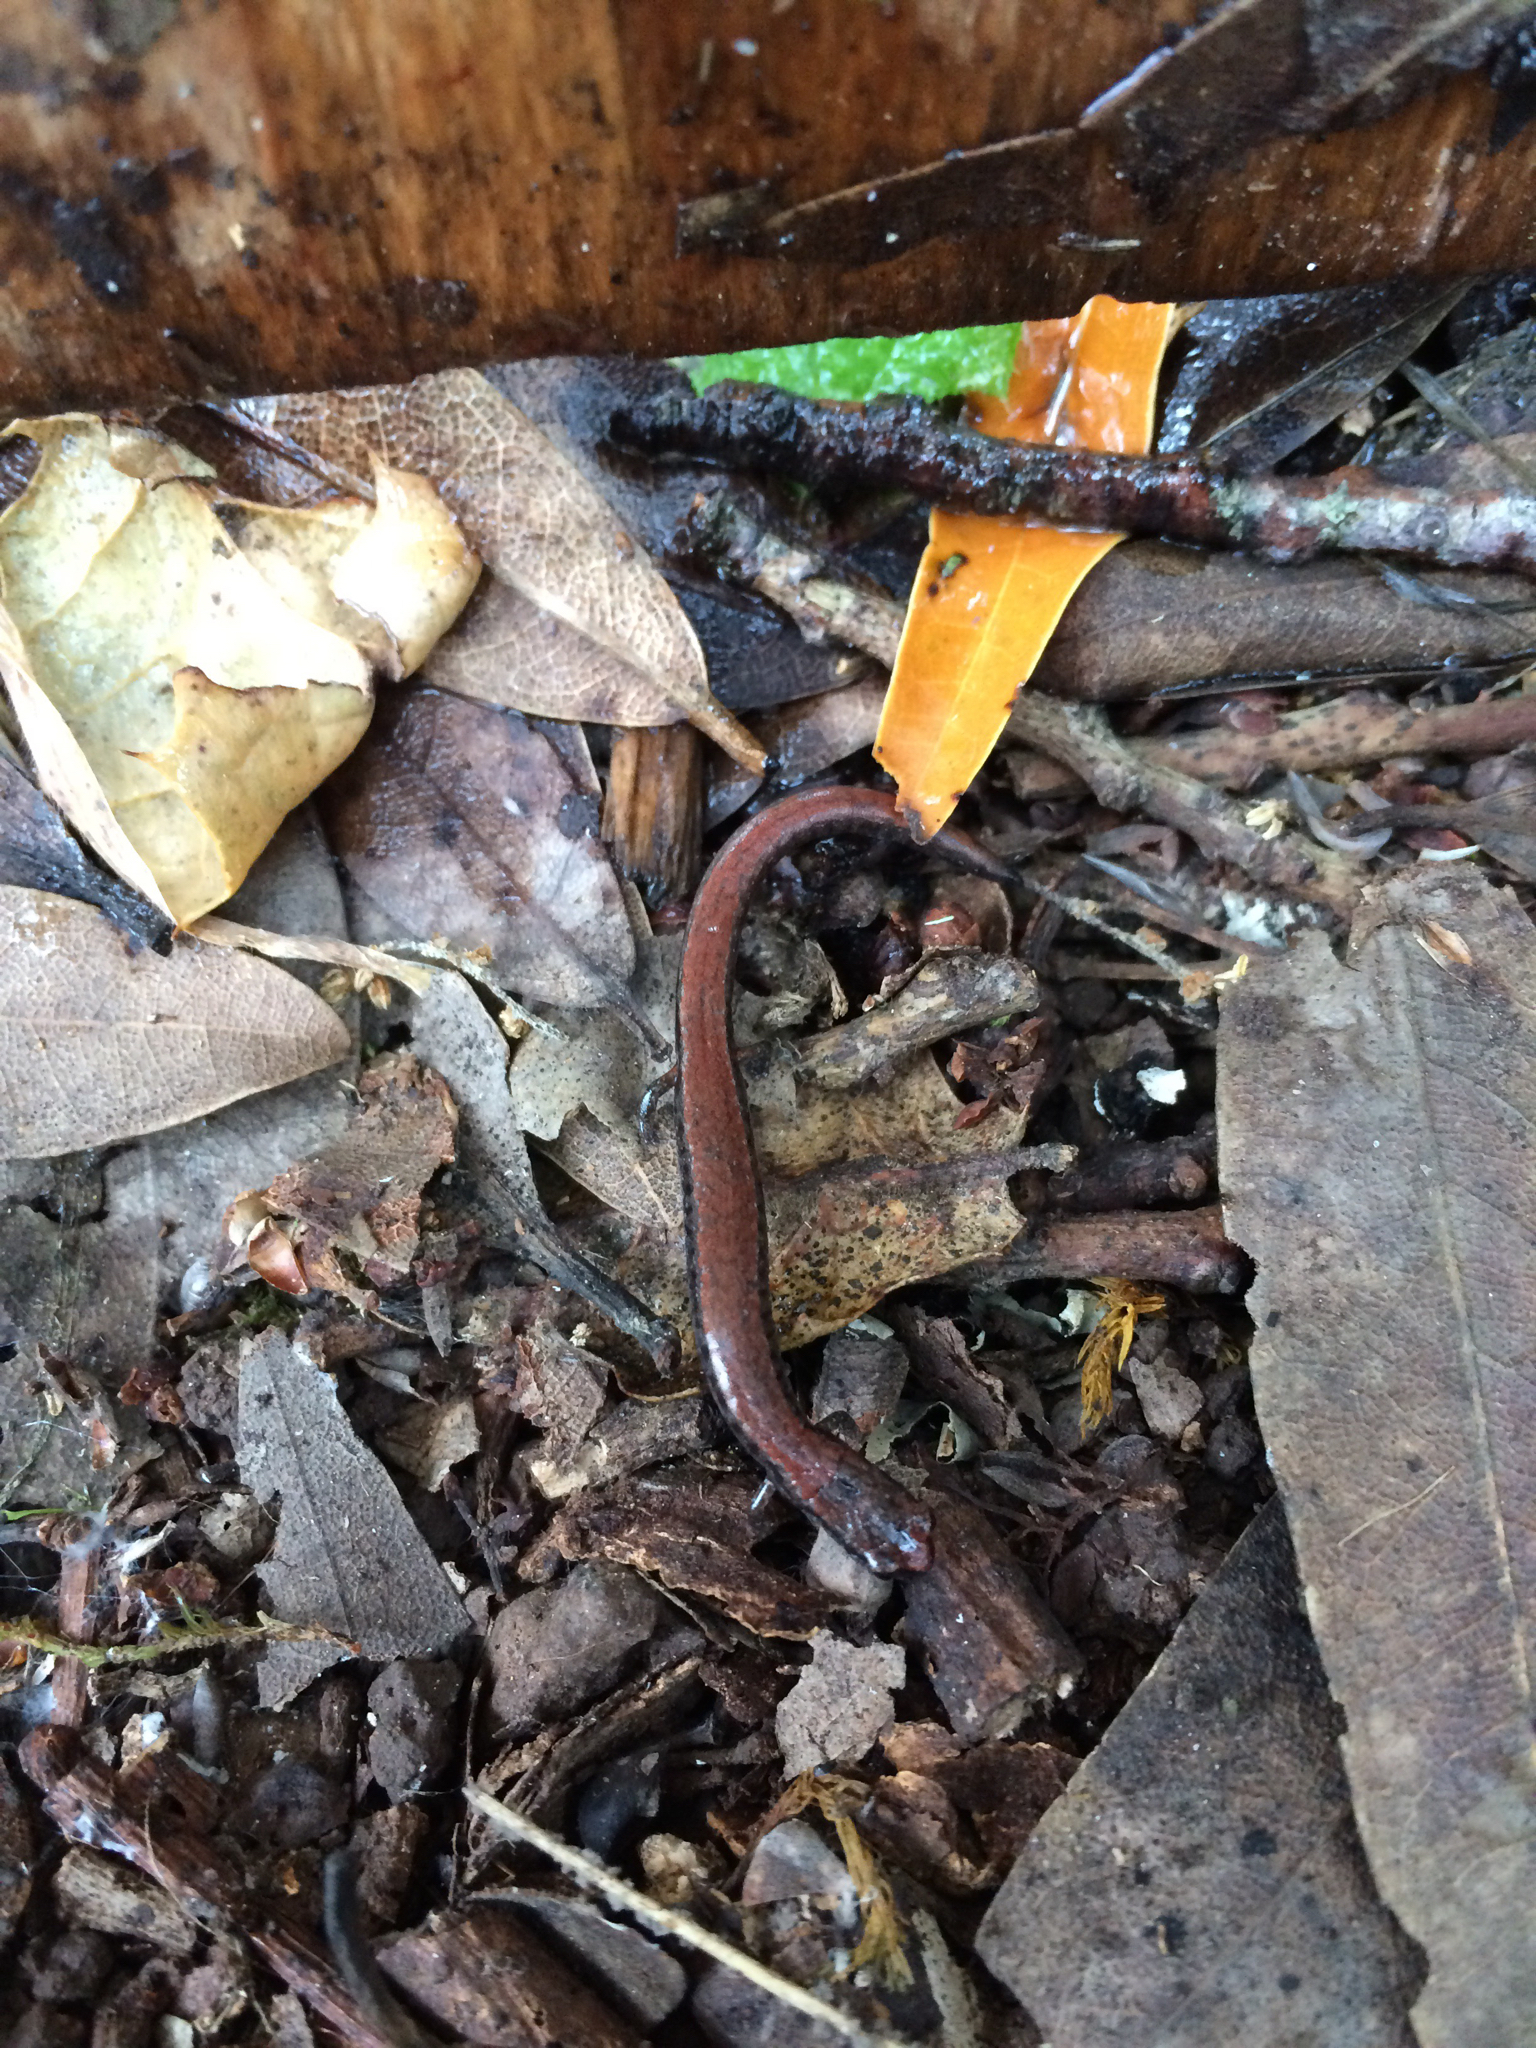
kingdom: Animalia
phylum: Chordata
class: Amphibia
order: Caudata
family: Plethodontidae
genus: Batrachoseps
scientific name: Batrachoseps attenuatus
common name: California slender salamander
